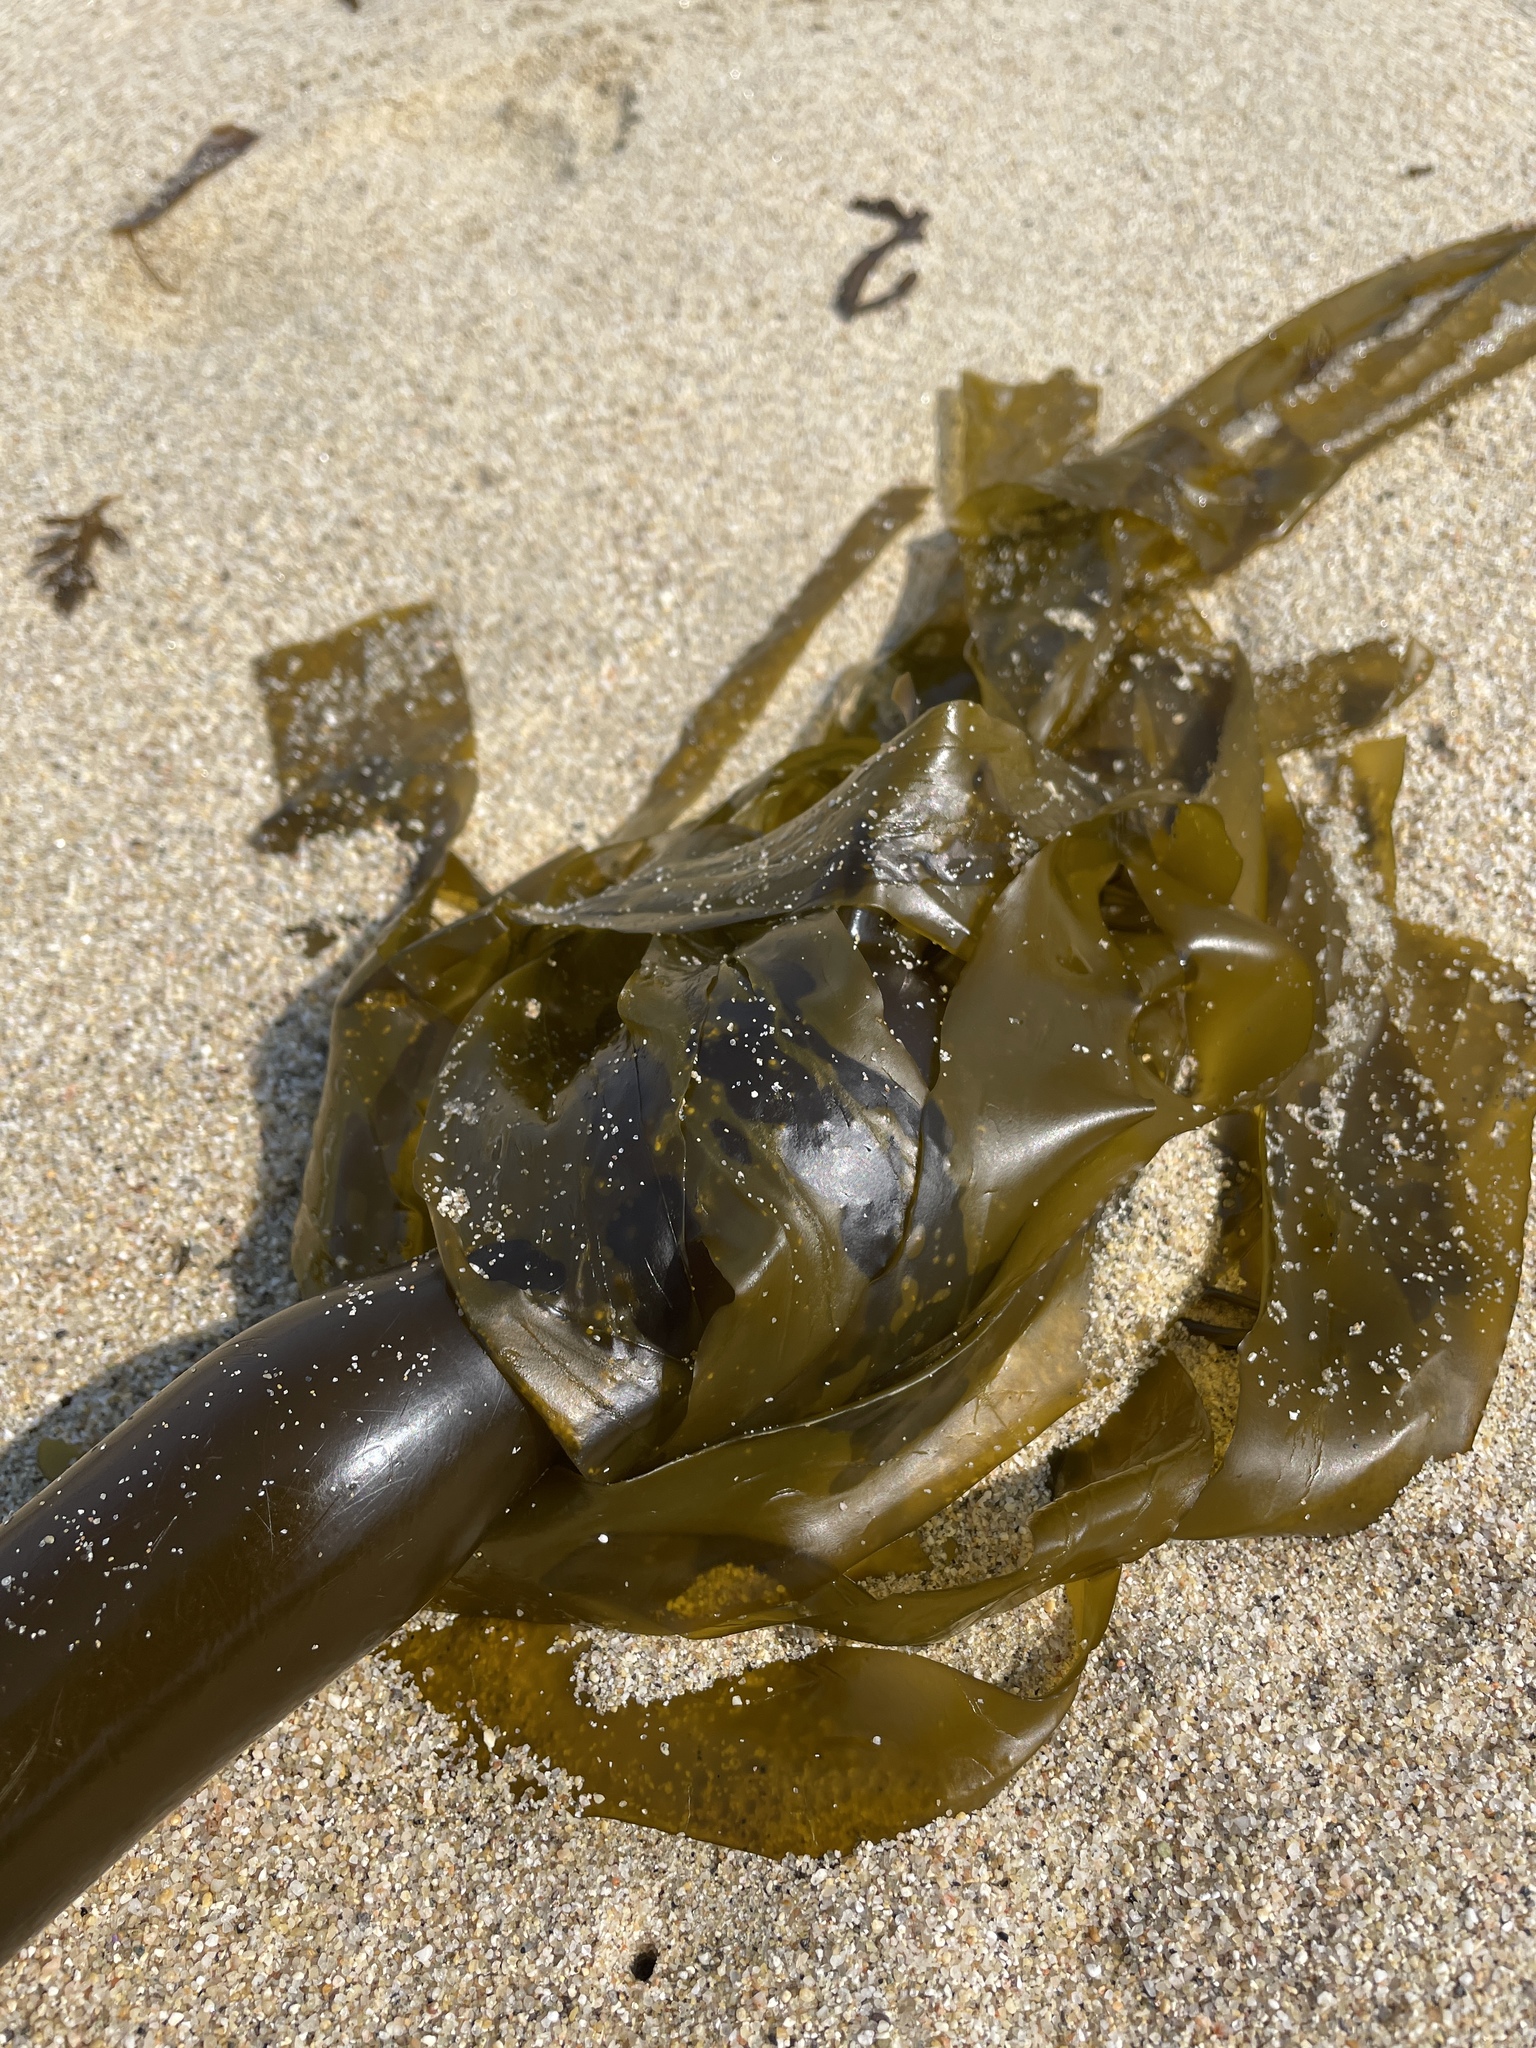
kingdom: Chromista
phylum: Ochrophyta
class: Phaeophyceae
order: Laminariales
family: Laminariaceae
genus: Nereocystis
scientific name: Nereocystis luetkeana
